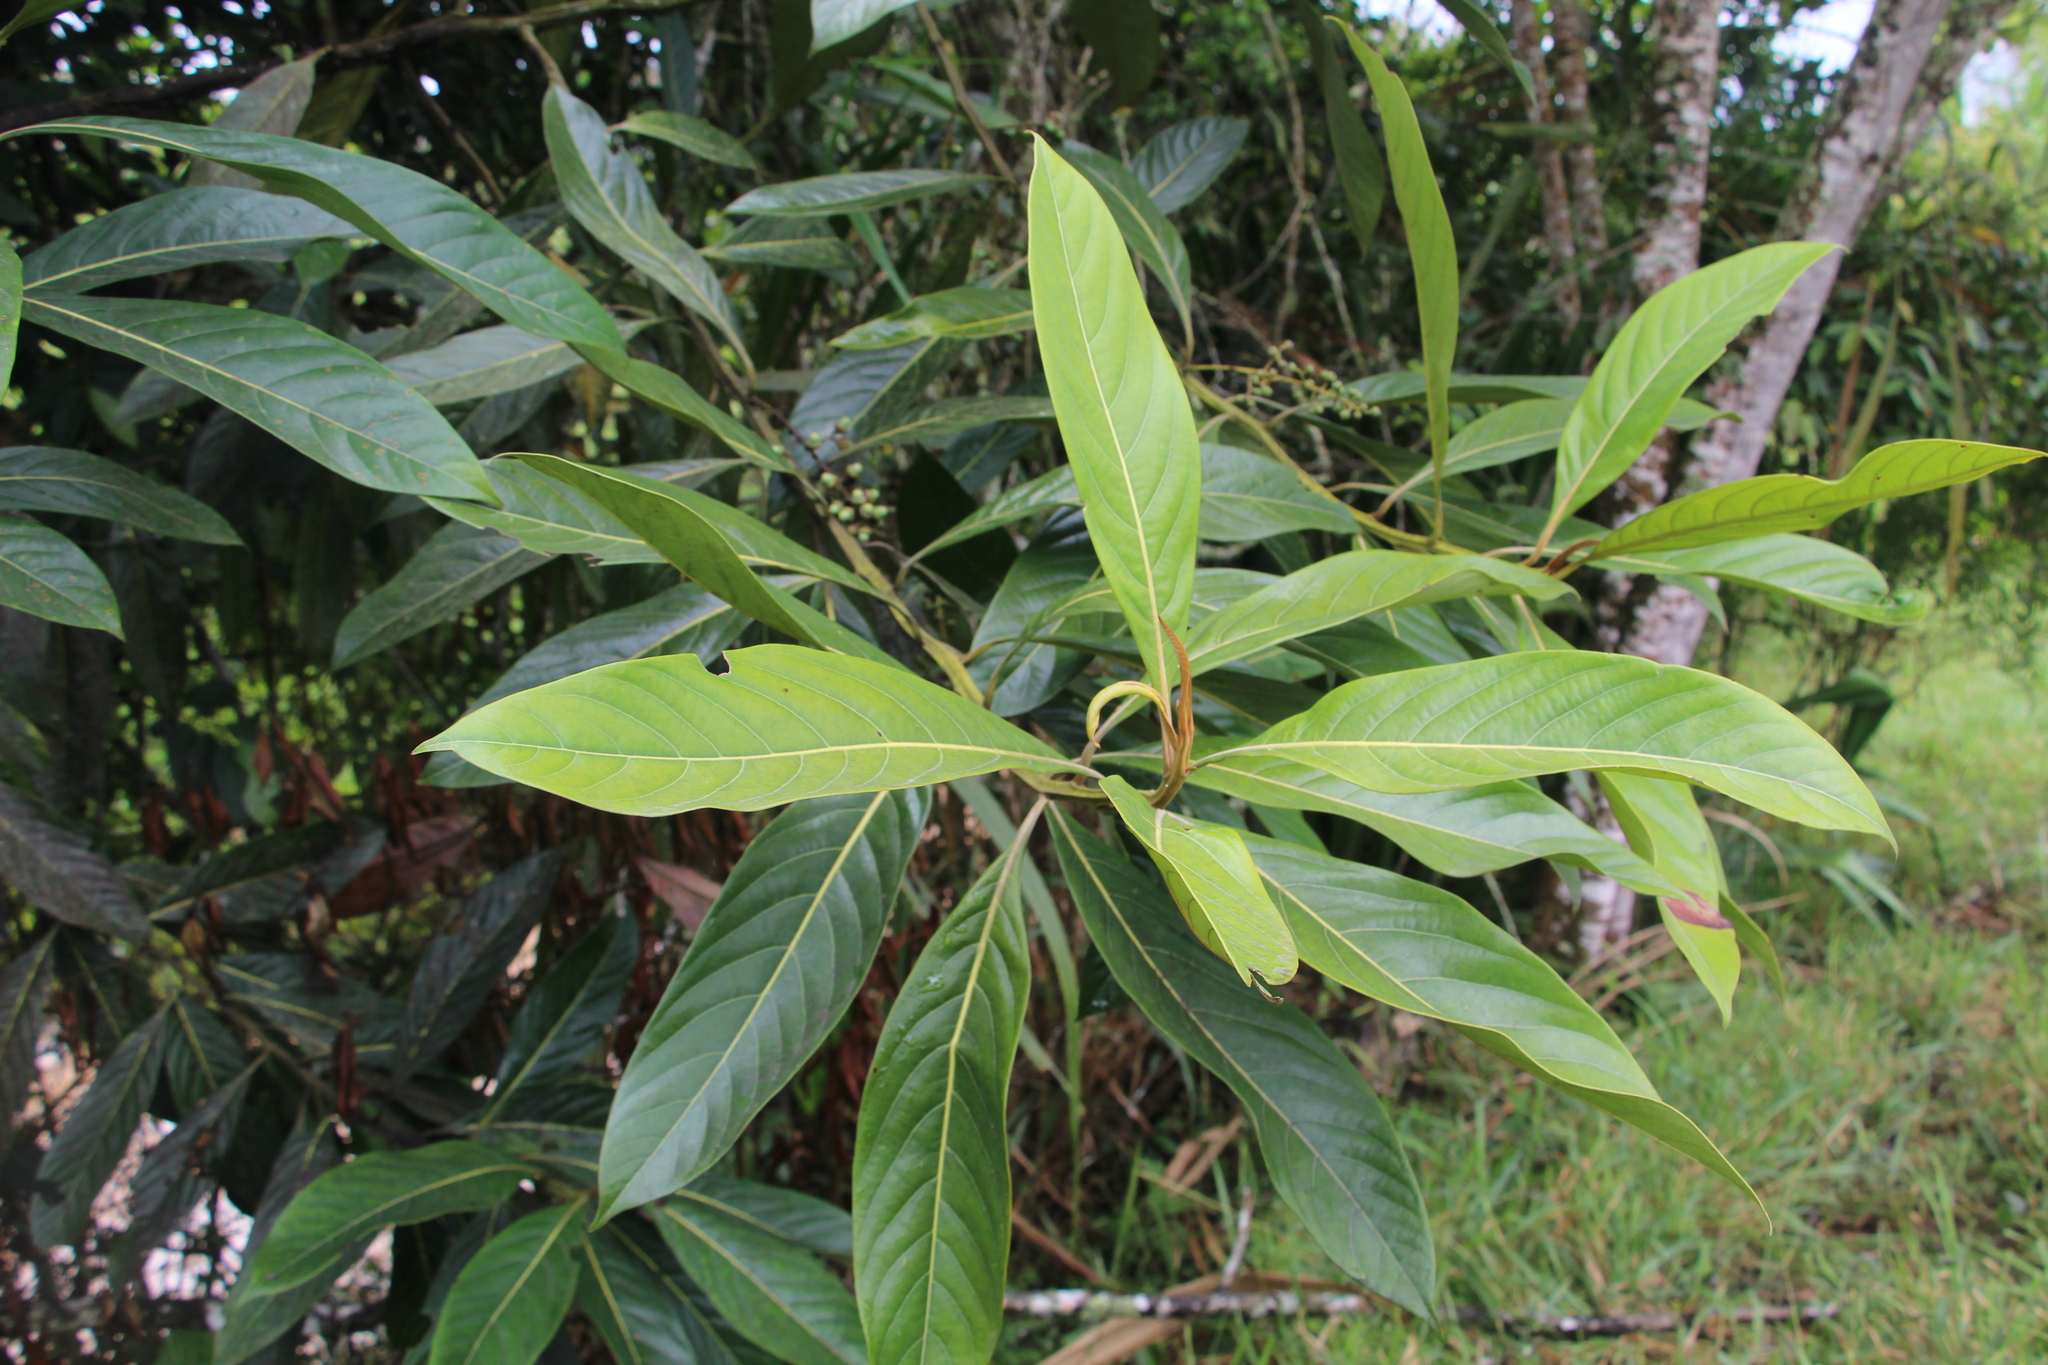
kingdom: Plantae
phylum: Tracheophyta
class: Magnoliopsida
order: Laurales
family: Lauraceae
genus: Mespilodaphne
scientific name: Mespilodaphne aurantiodora
